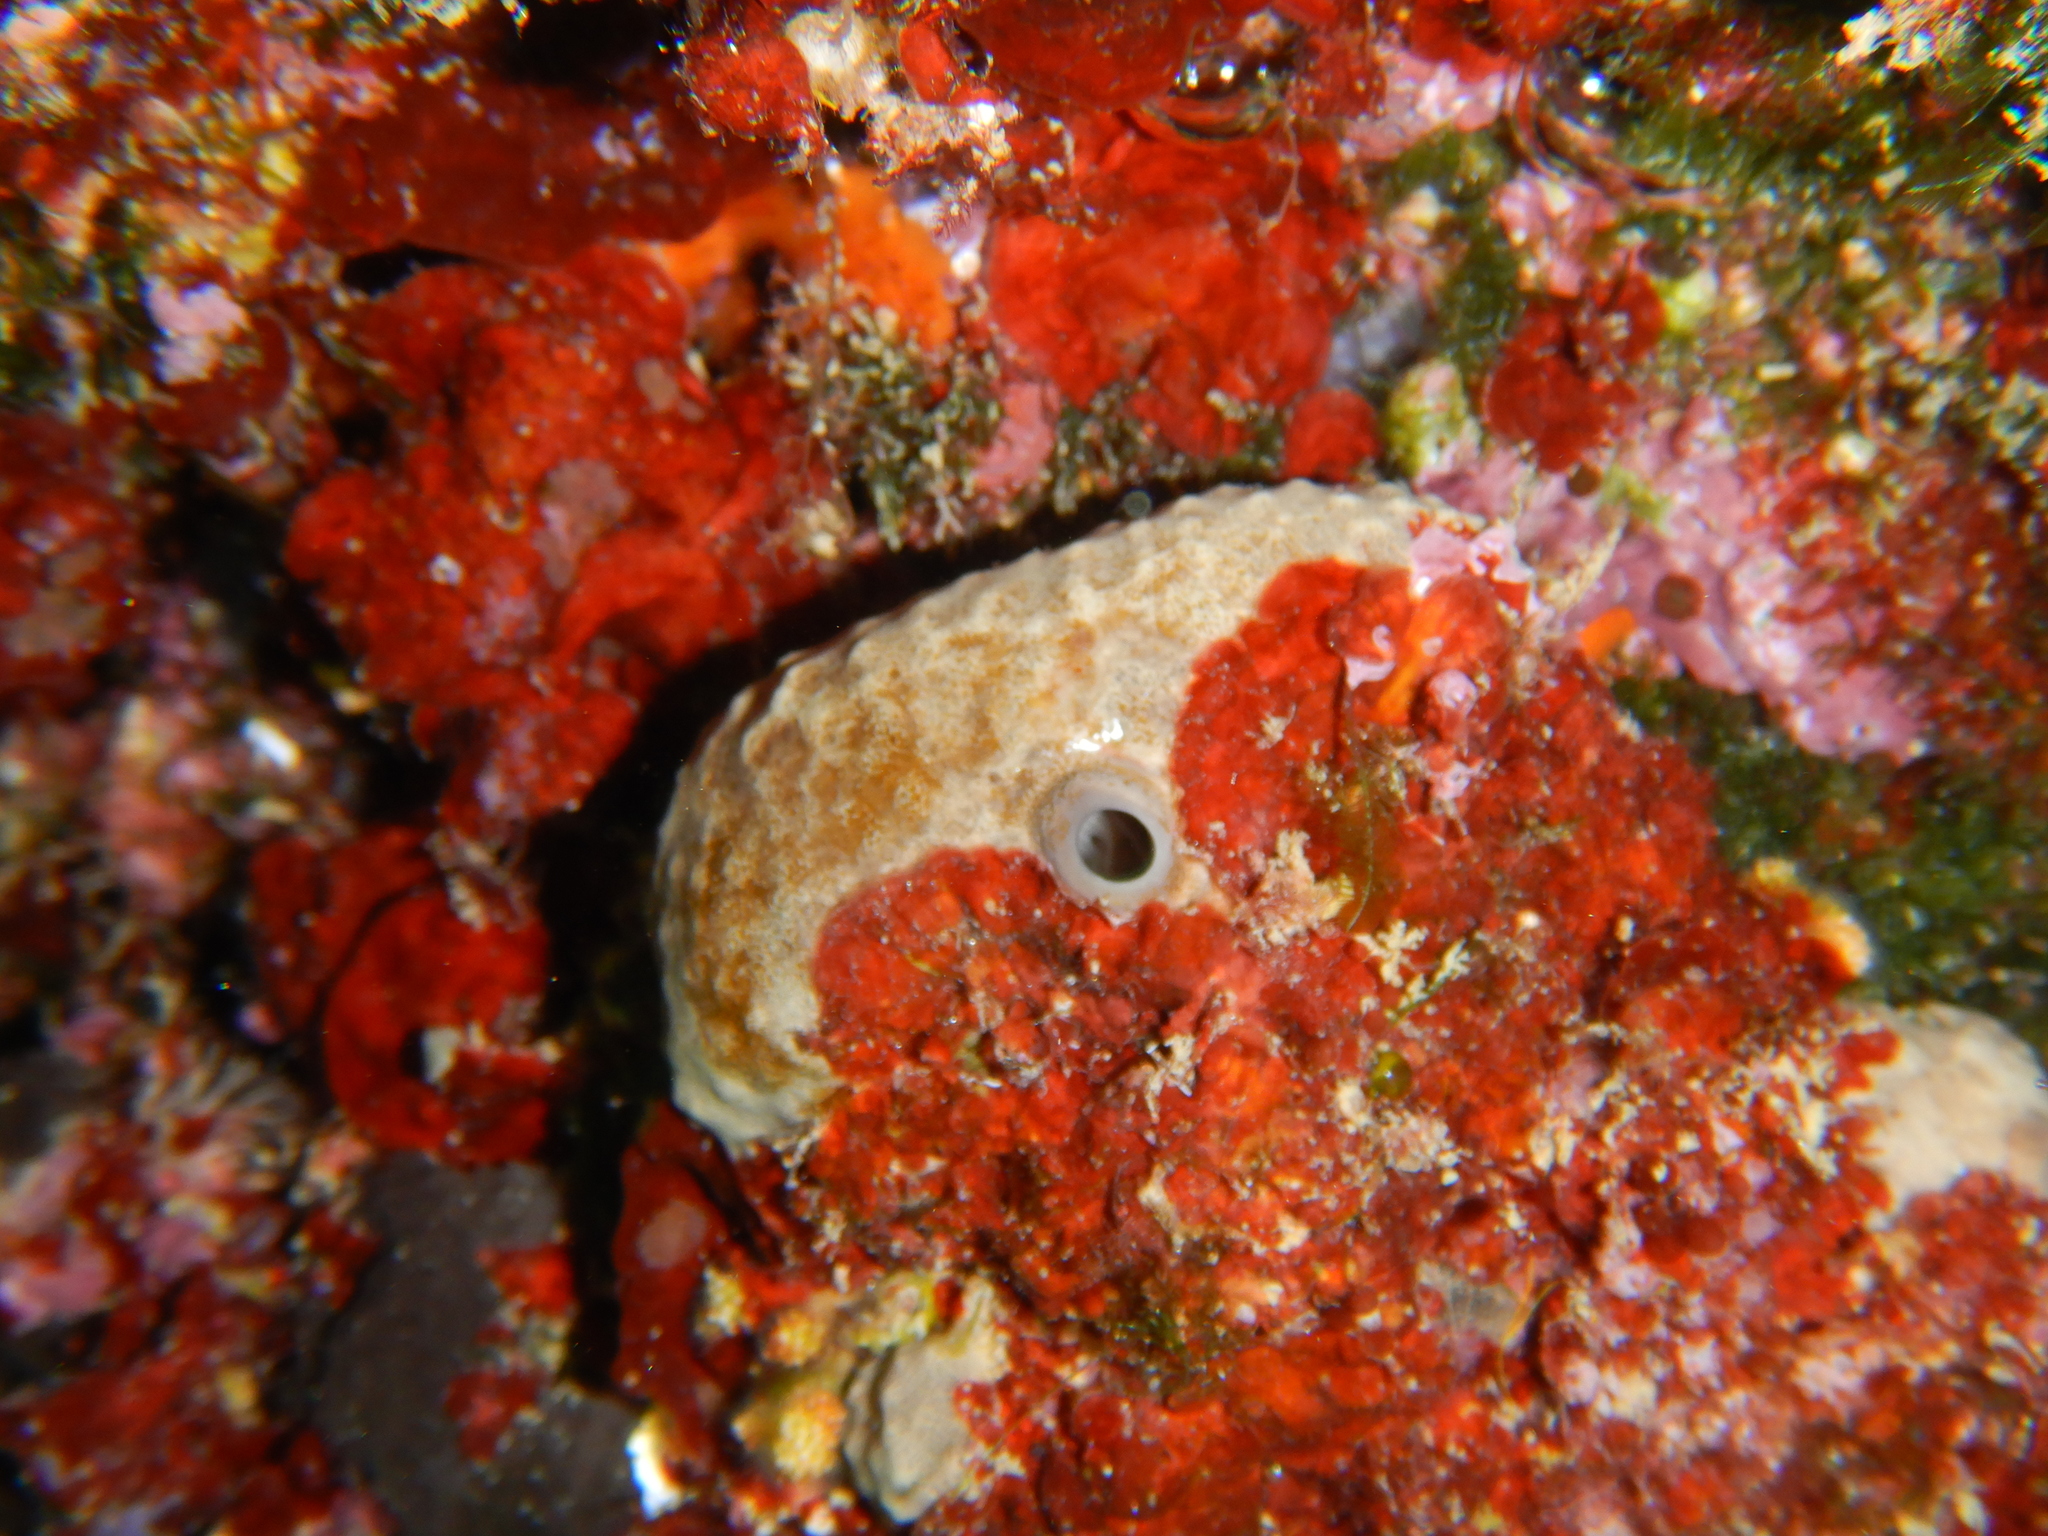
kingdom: Animalia
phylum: Porifera
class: Demospongiae
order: Dictyoceratida
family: Irciniidae
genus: Ircinia
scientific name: Ircinia oros
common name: Grey leather sponge
